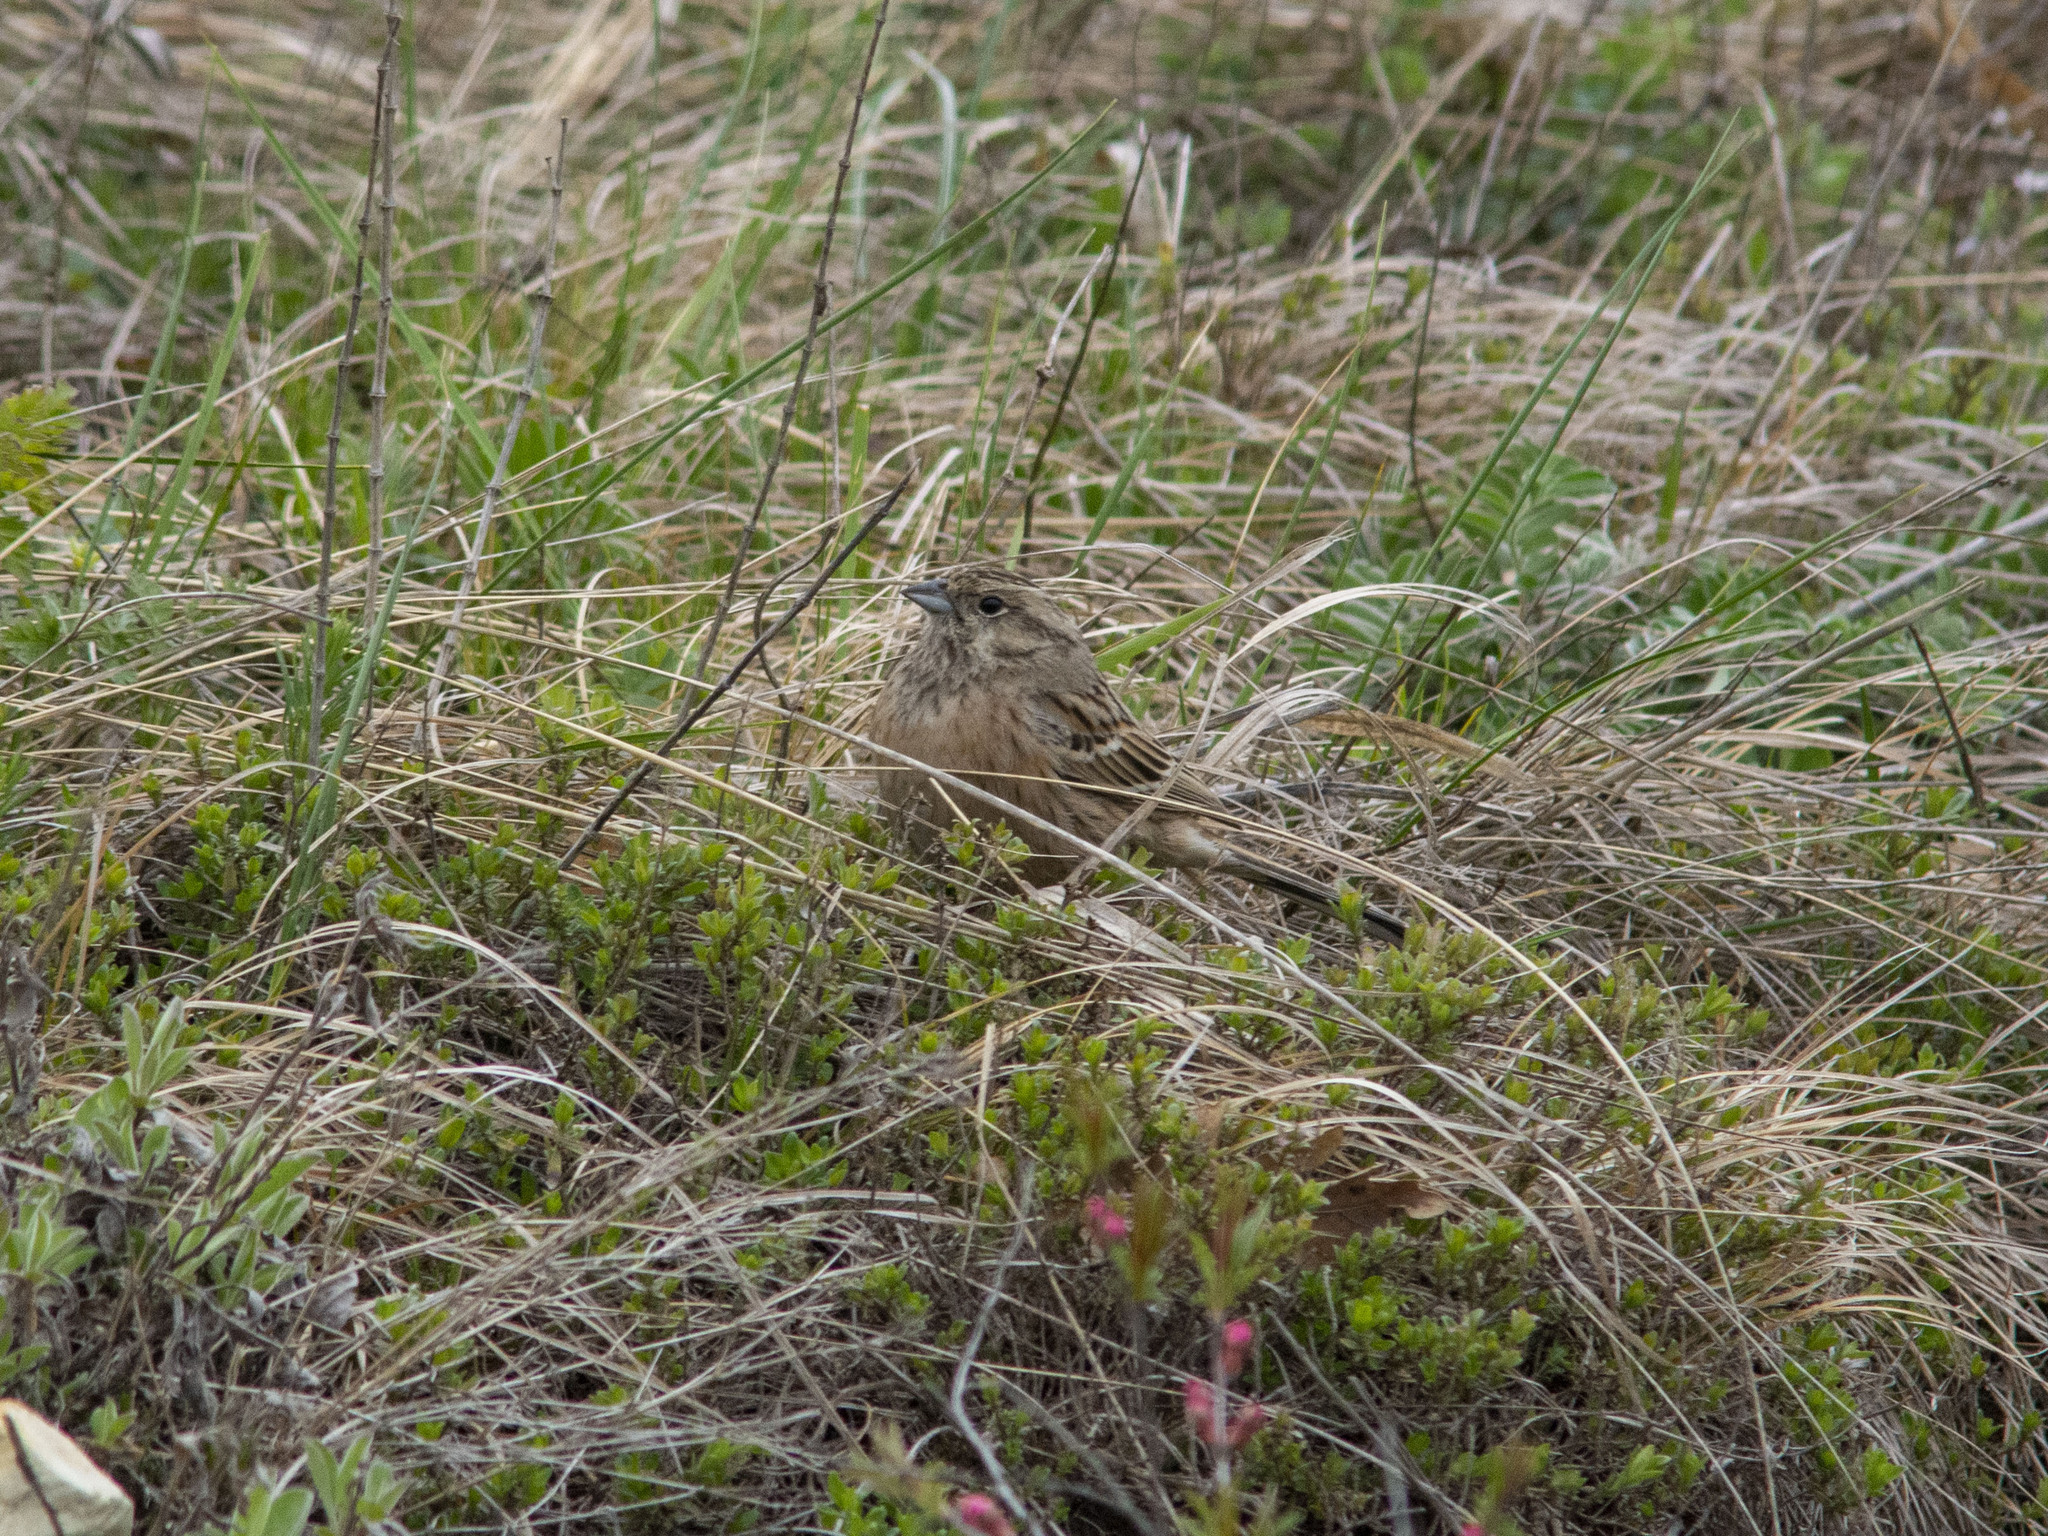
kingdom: Animalia
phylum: Chordata
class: Aves
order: Passeriformes
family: Emberizidae
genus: Emberiza
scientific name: Emberiza cia
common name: Rock bunting
